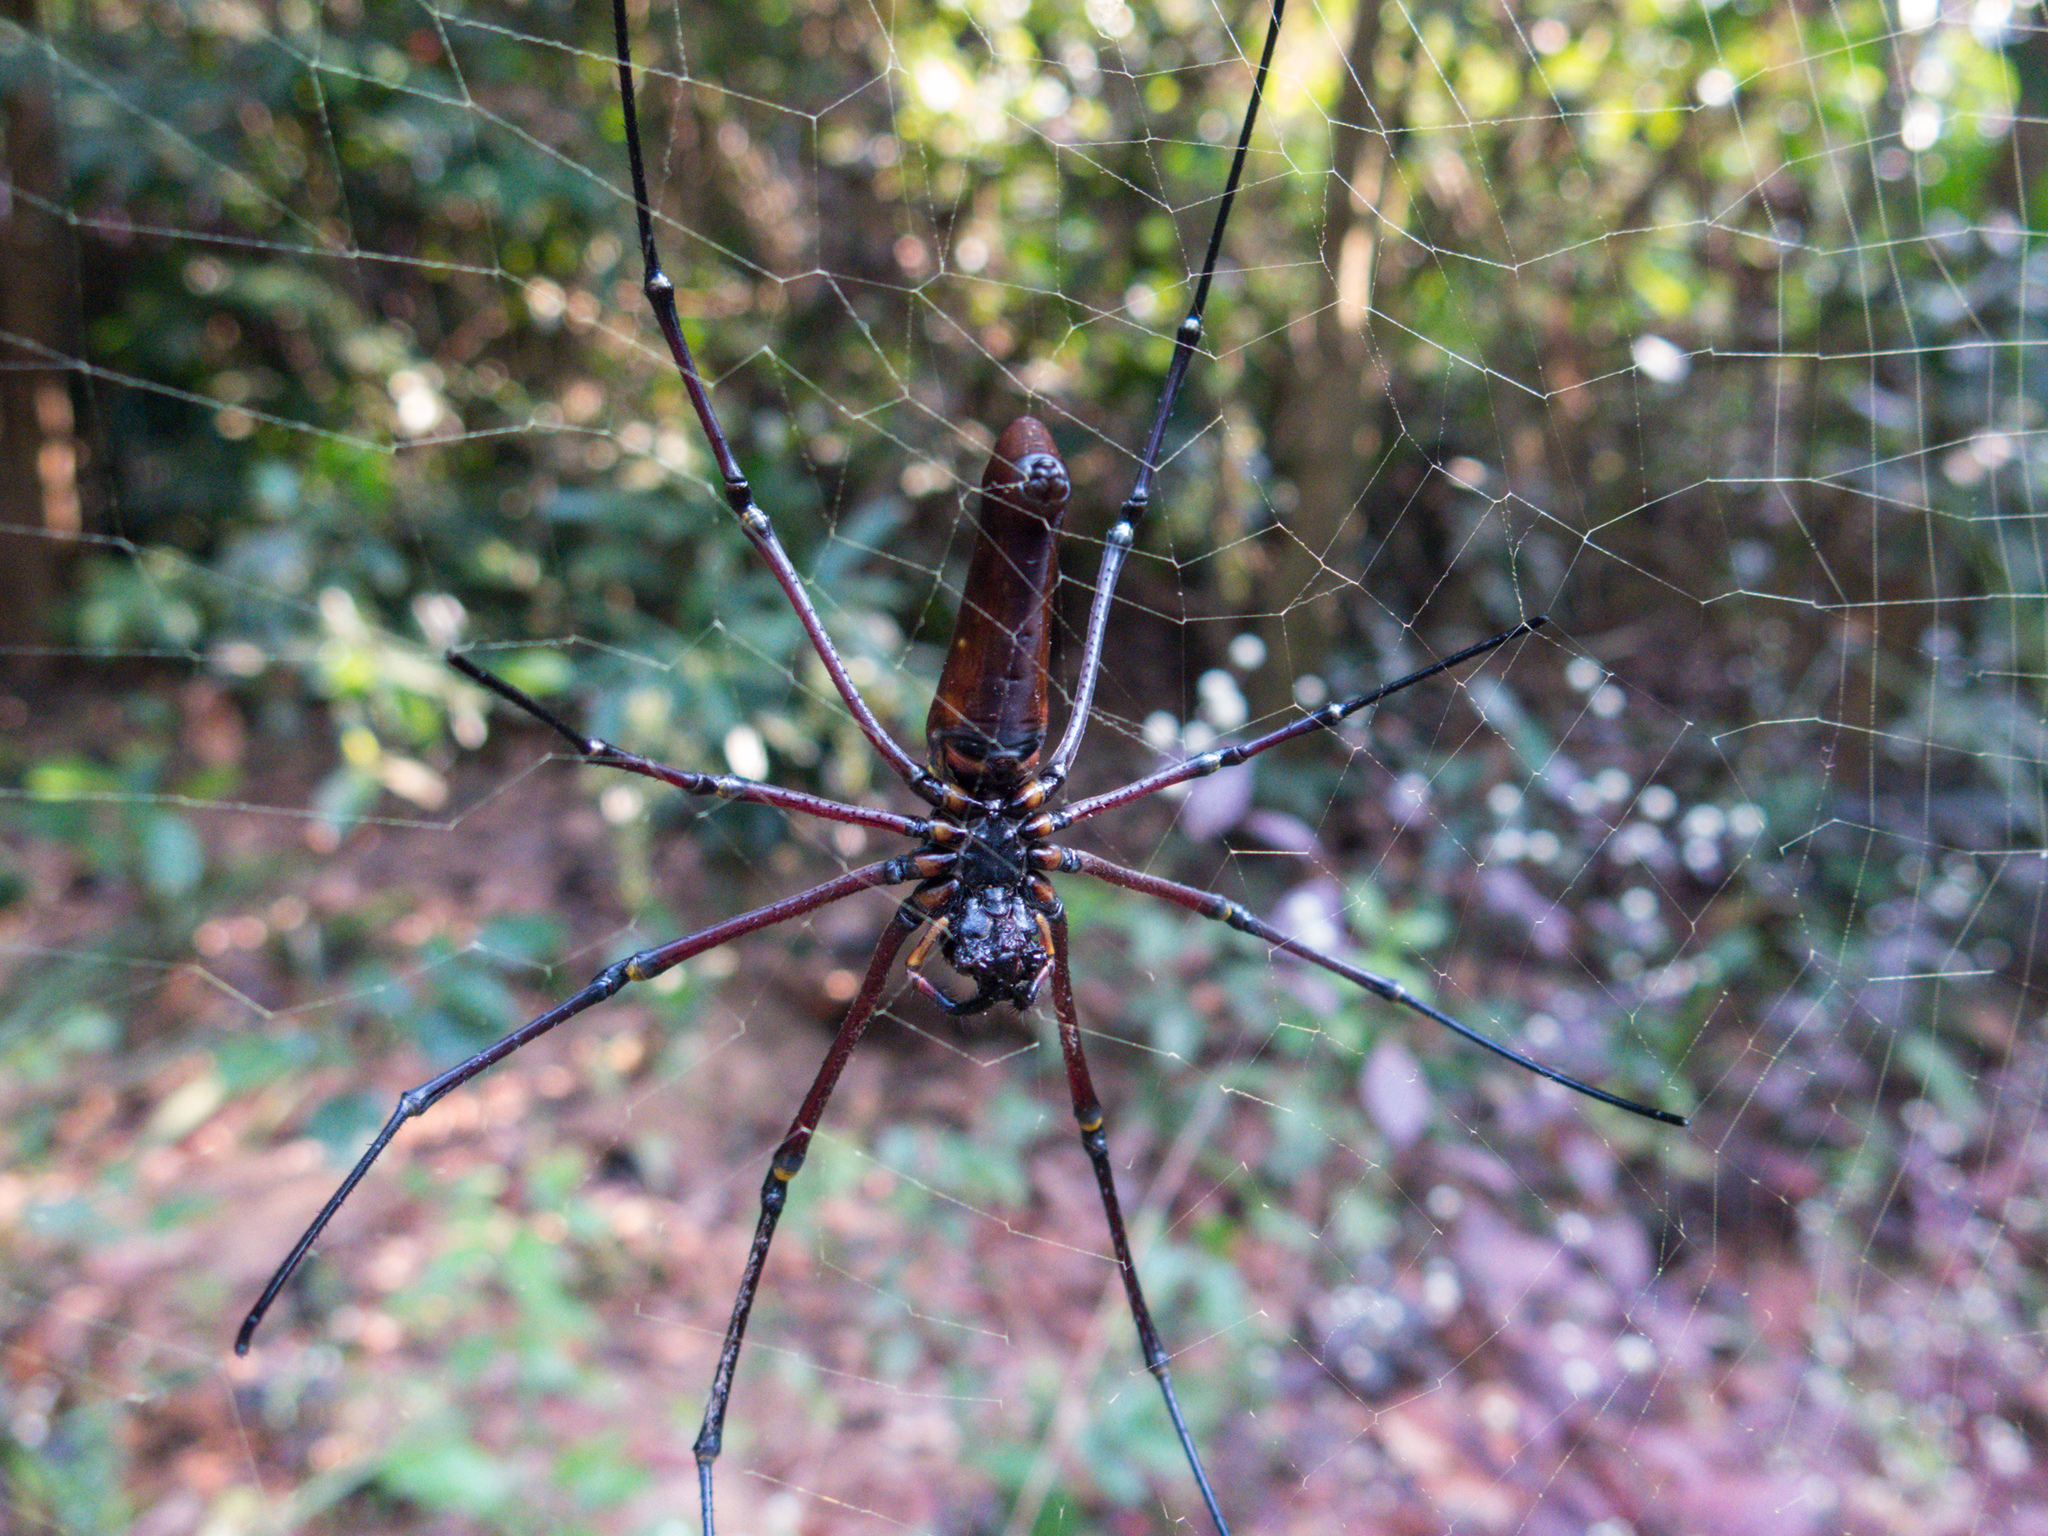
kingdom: Animalia
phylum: Arthropoda
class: Arachnida
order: Araneae
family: Araneidae
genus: Nephila
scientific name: Nephila pilipes
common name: Giant golden orb weaver
